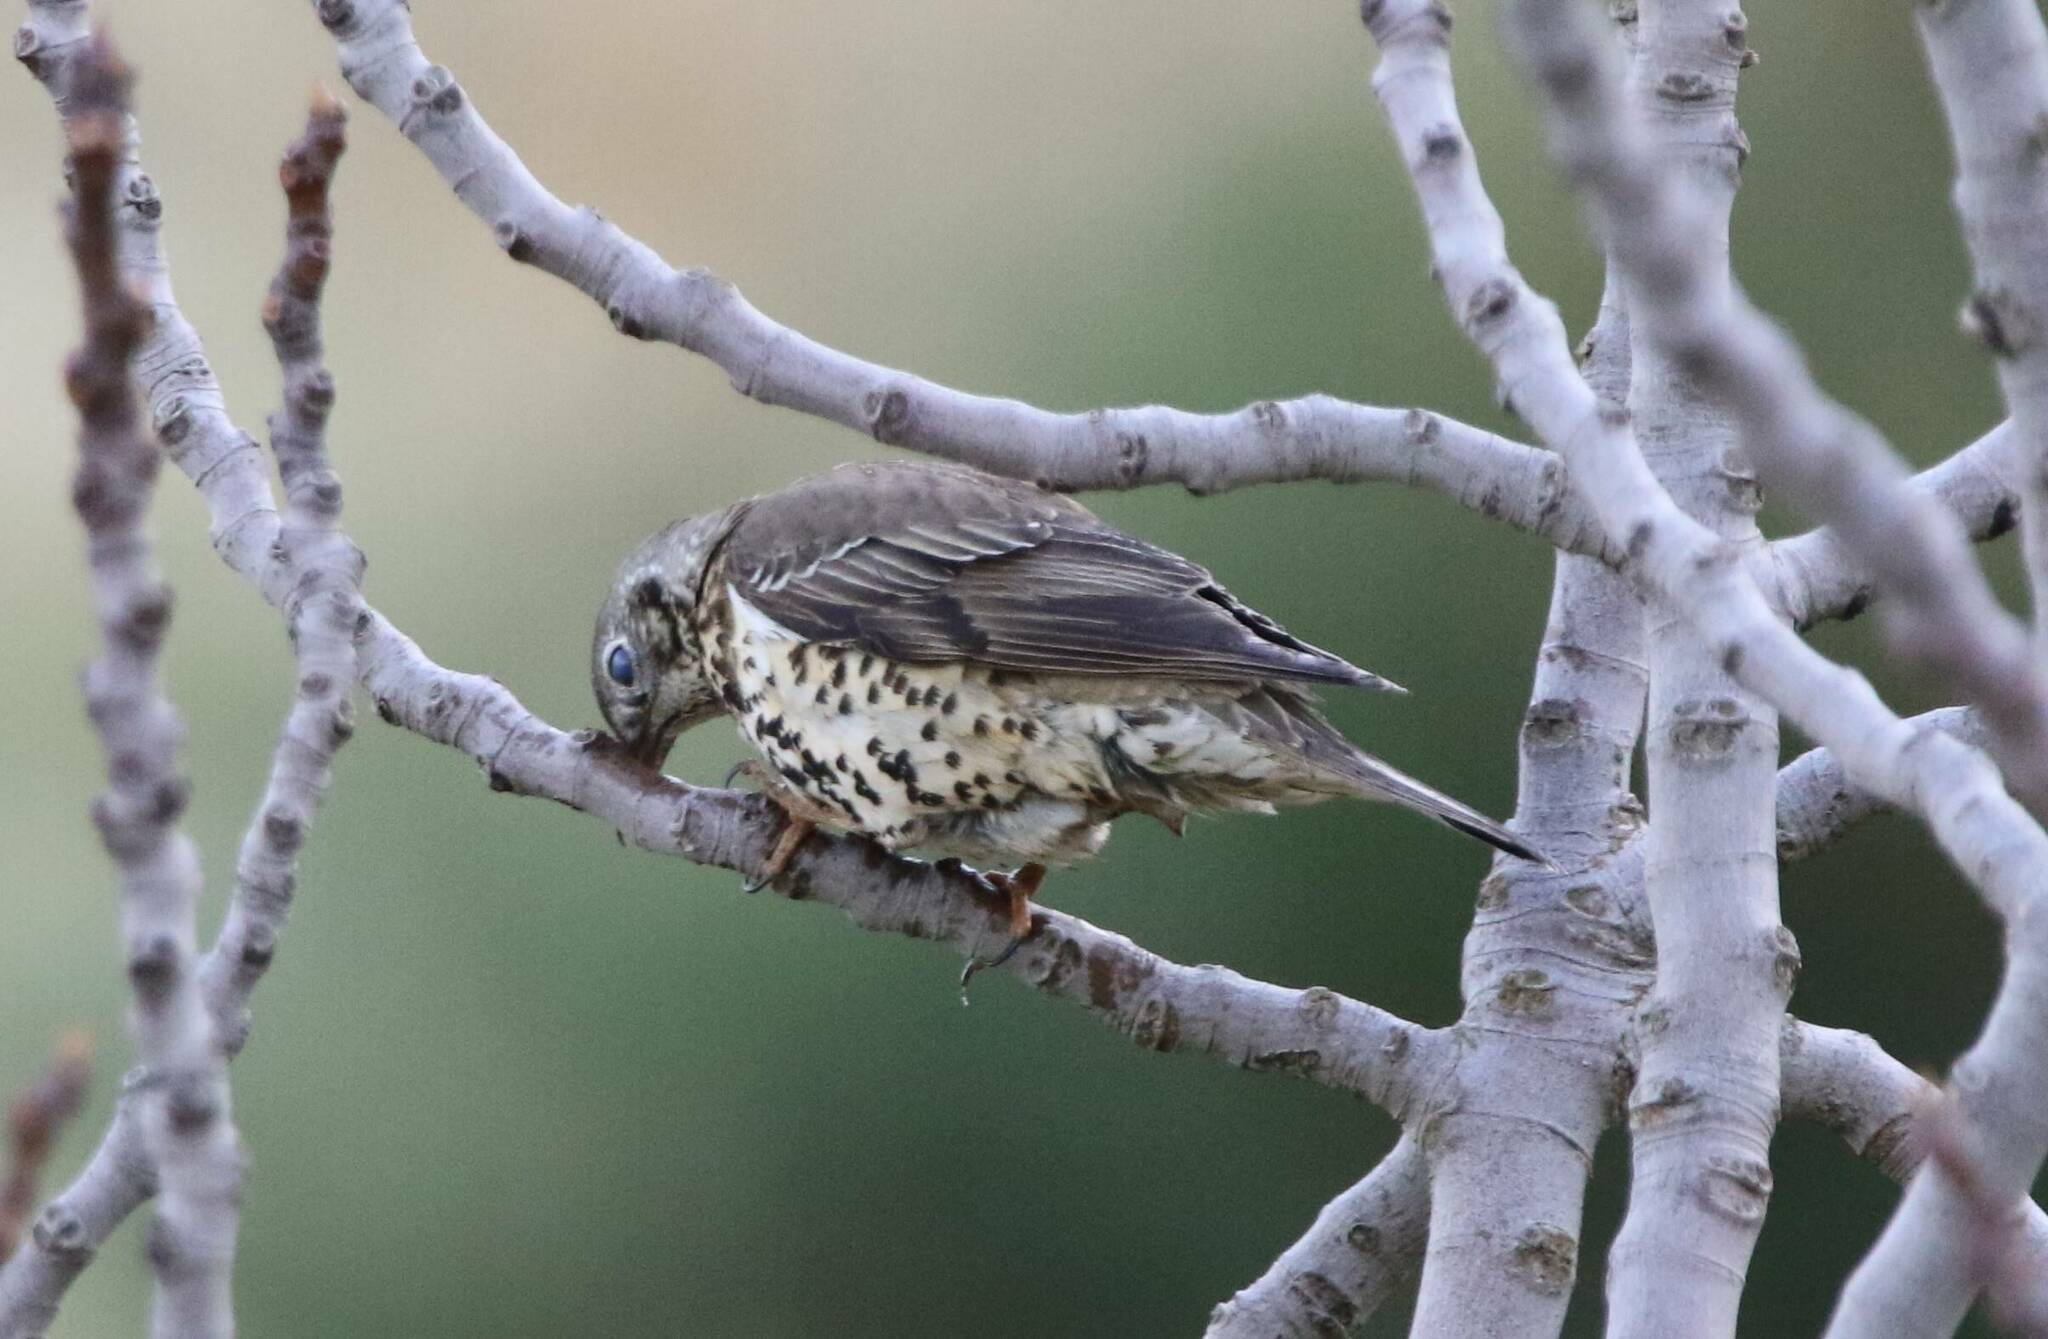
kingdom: Animalia
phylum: Chordata
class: Aves
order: Passeriformes
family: Turdidae
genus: Turdus
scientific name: Turdus viscivorus
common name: Mistle thrush
